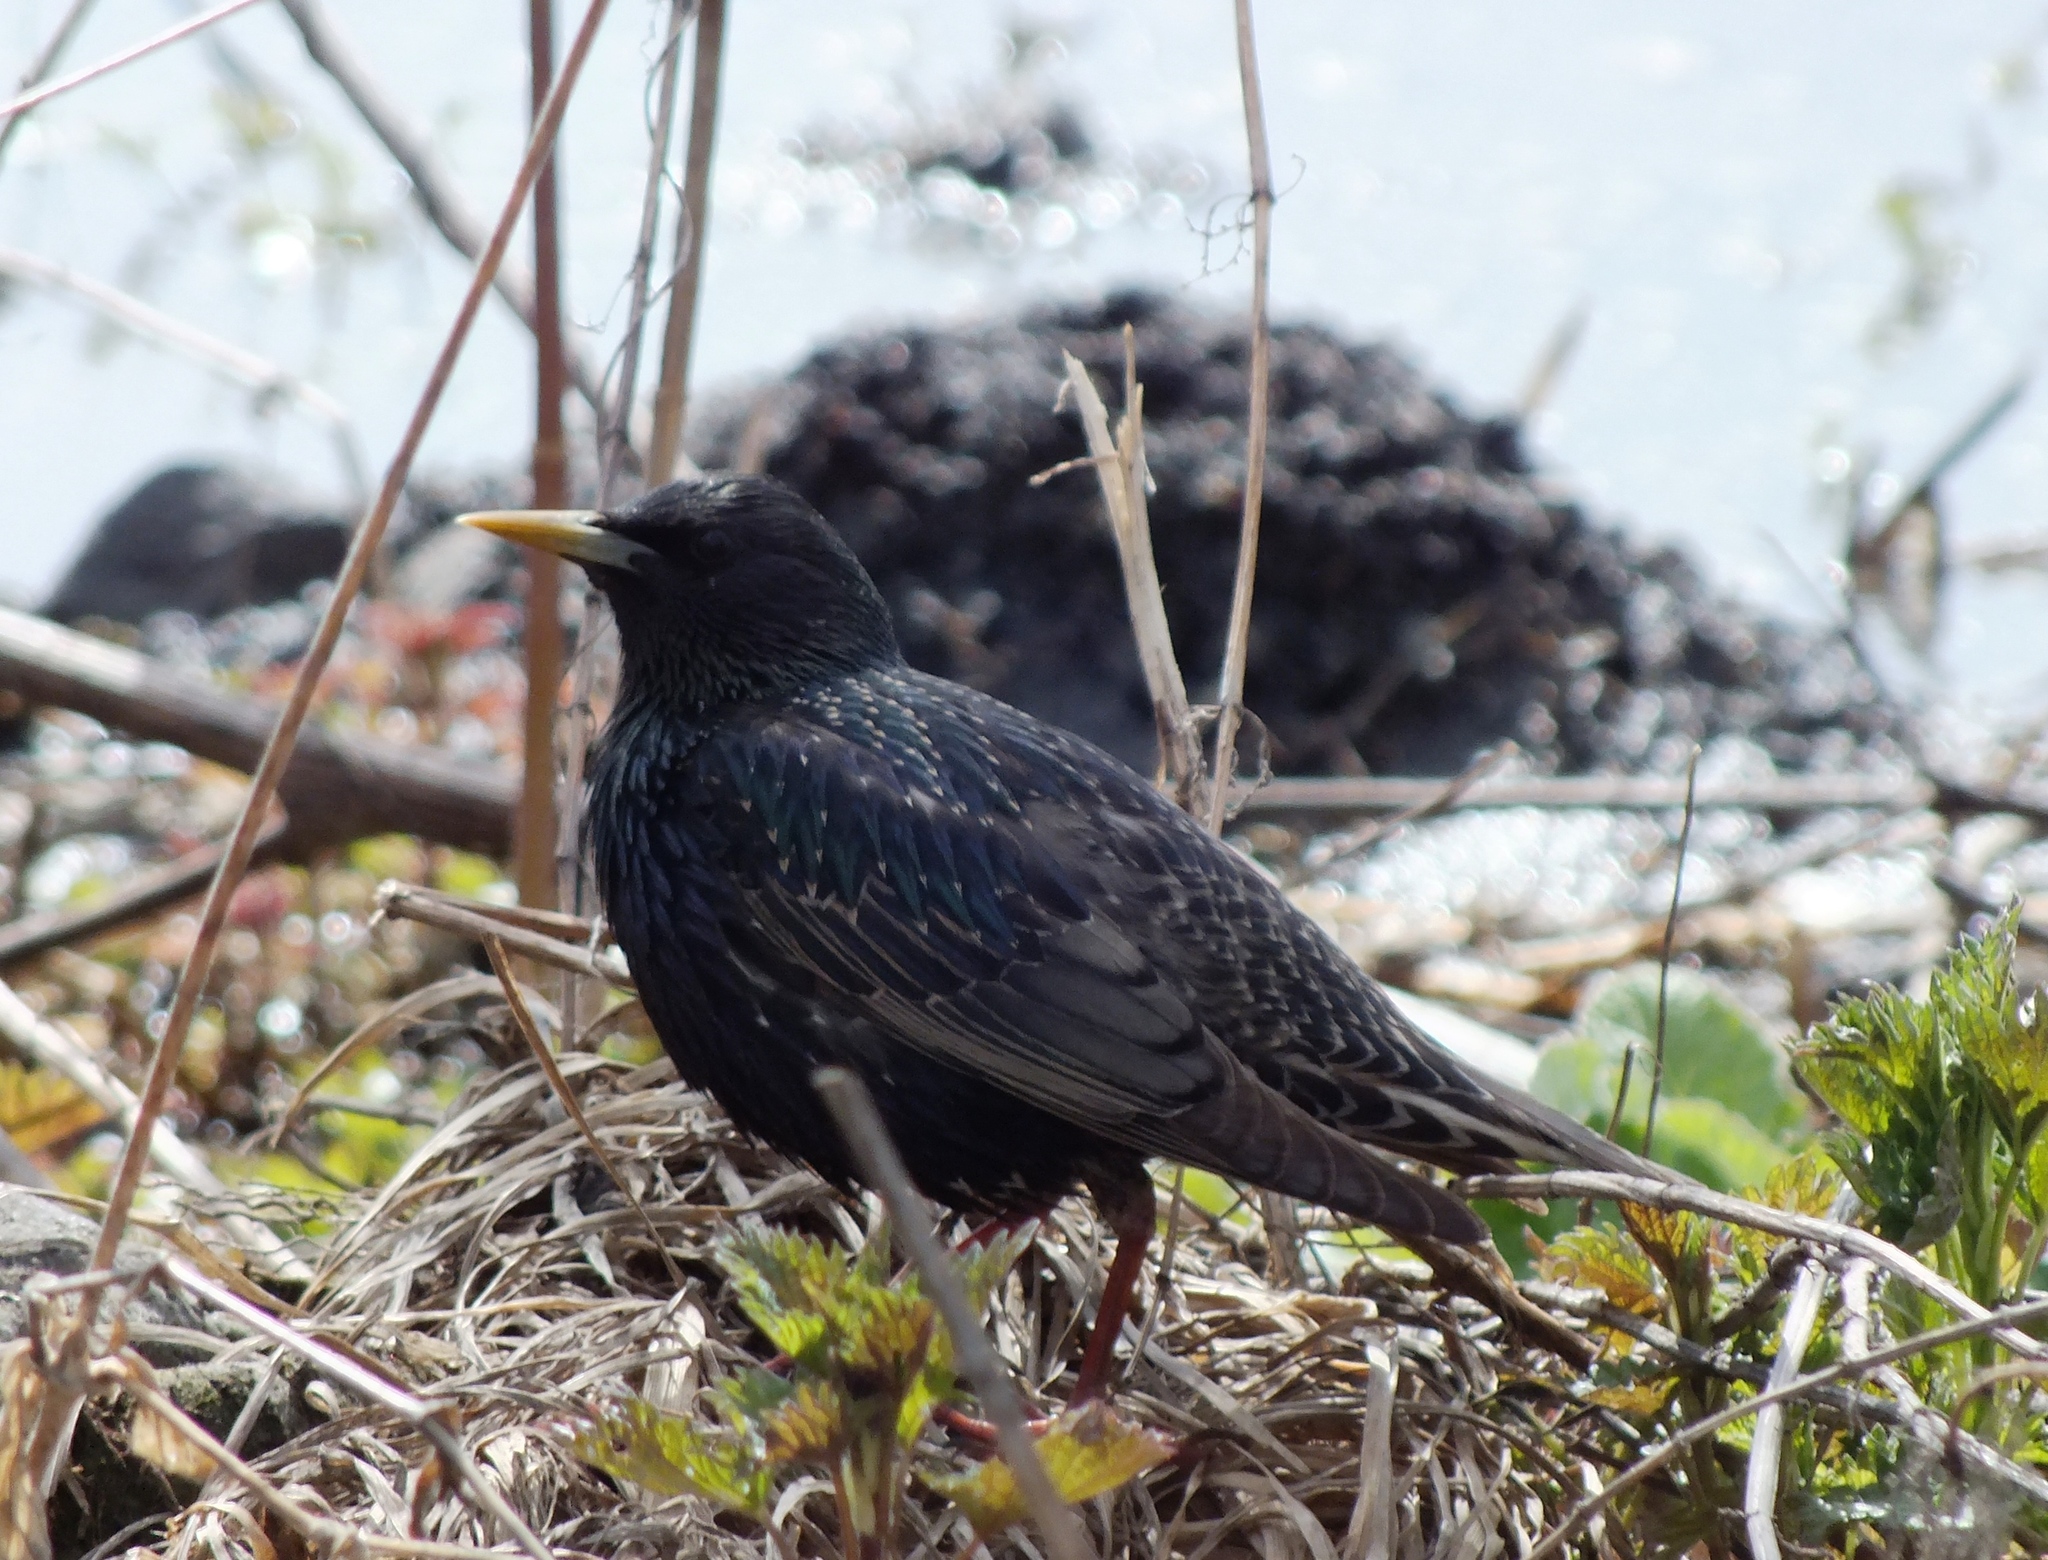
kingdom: Animalia
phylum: Chordata
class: Aves
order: Passeriformes
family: Sturnidae
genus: Sturnus
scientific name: Sturnus vulgaris
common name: Common starling
